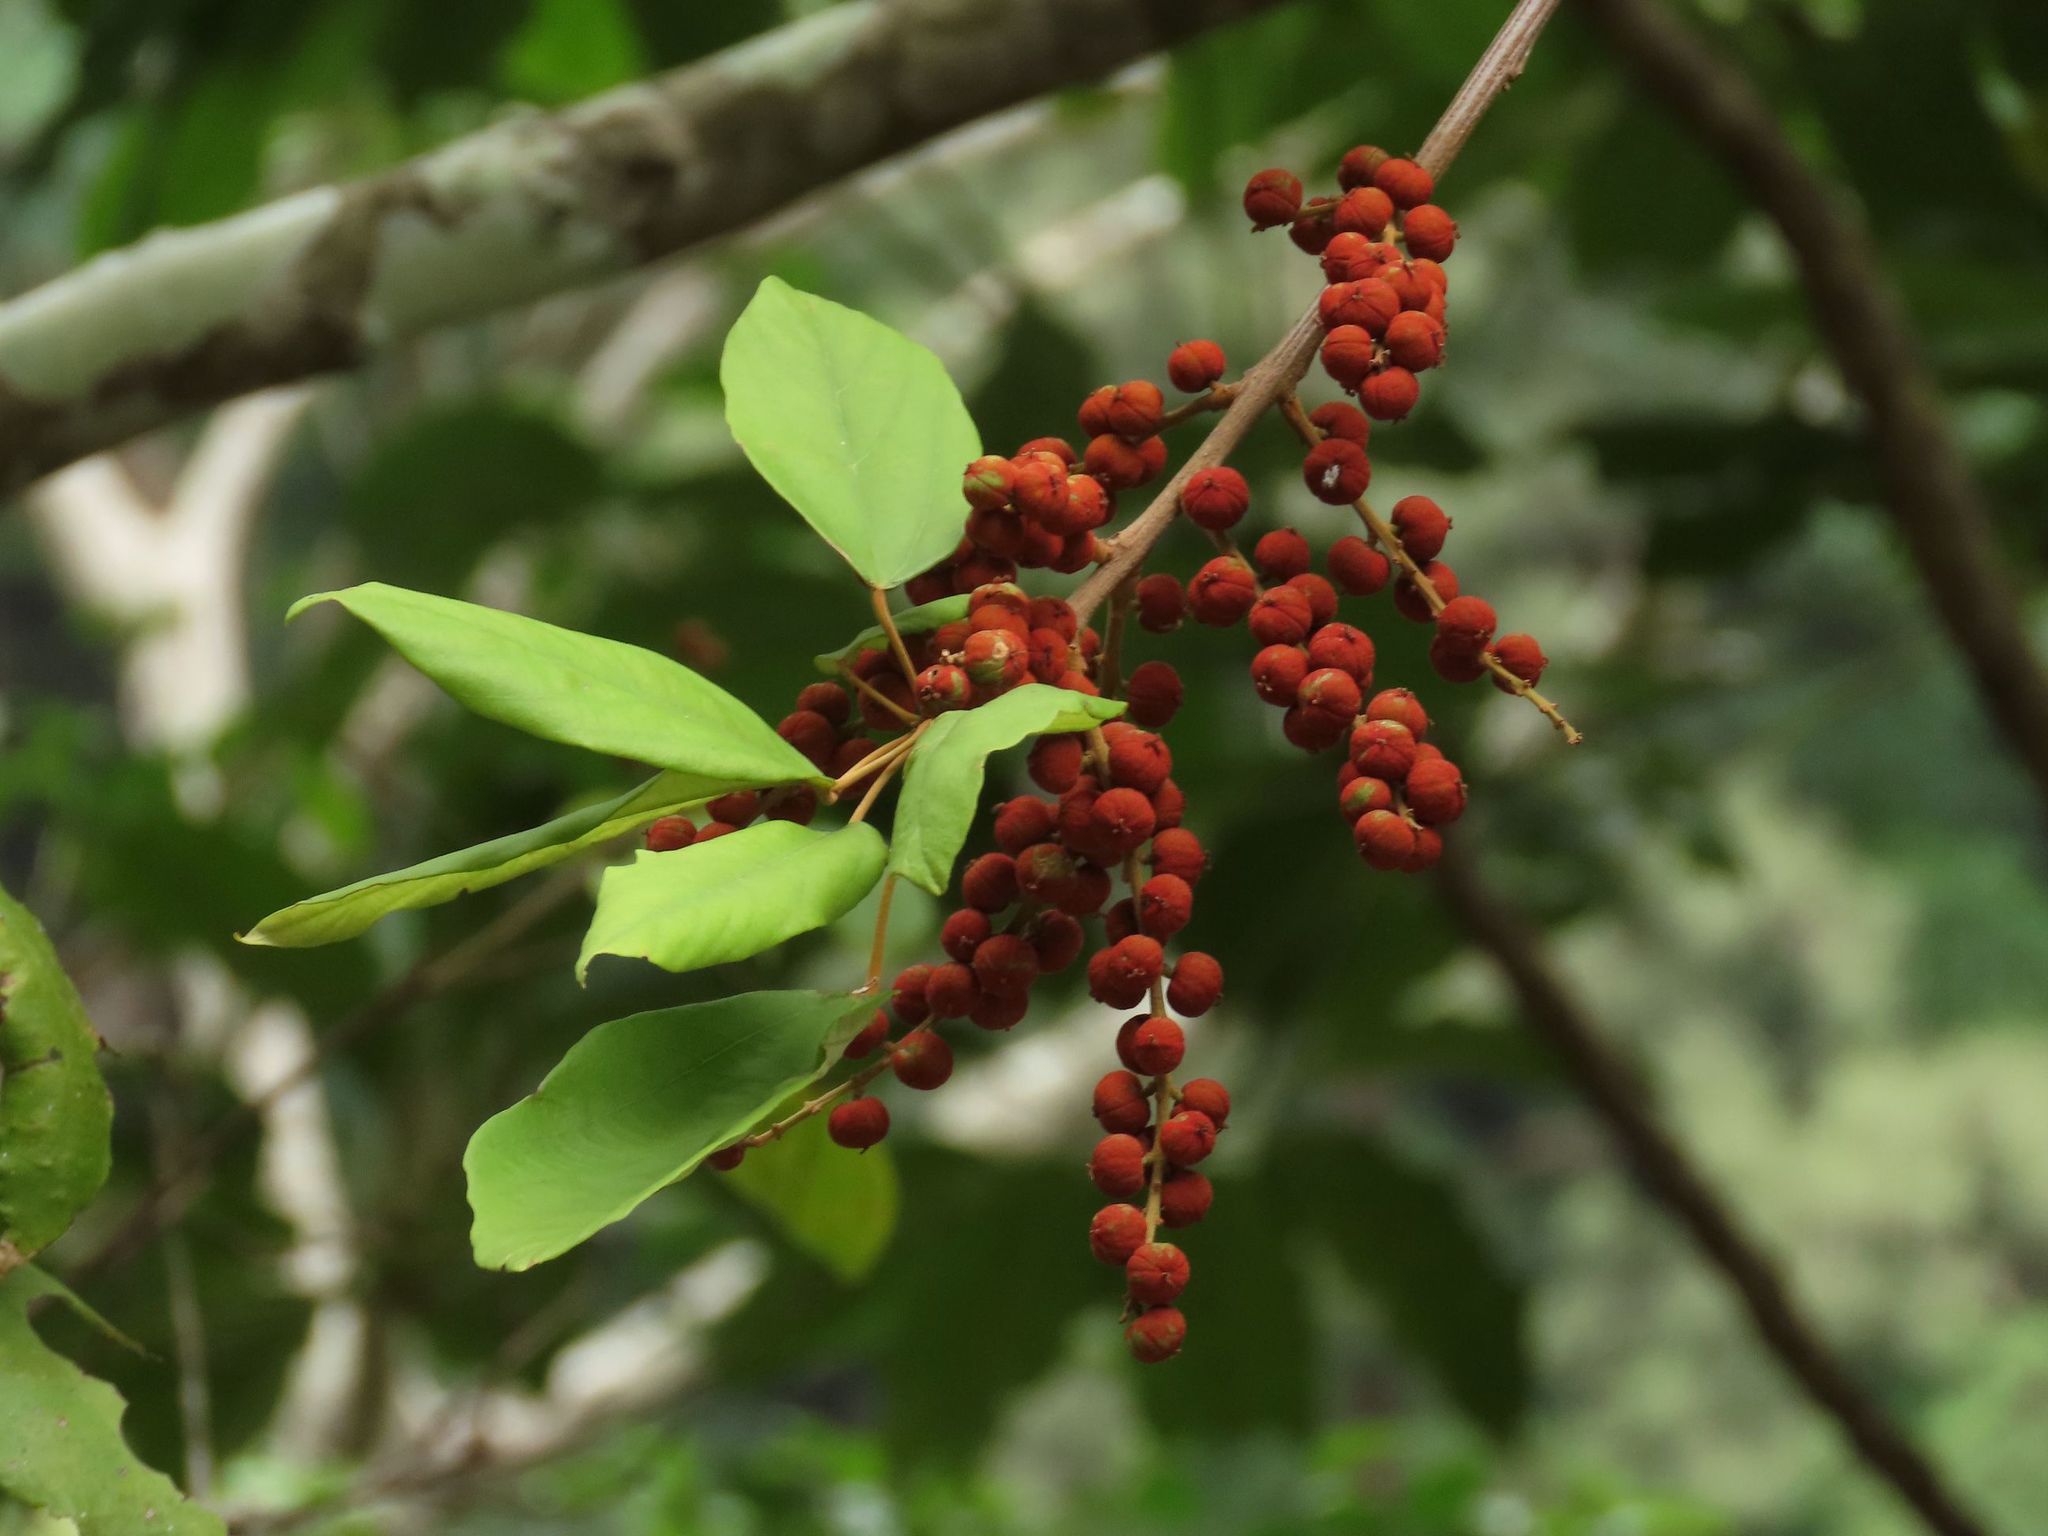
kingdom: Plantae
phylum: Tracheophyta
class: Magnoliopsida
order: Malpighiales
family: Euphorbiaceae
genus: Mallotus
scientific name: Mallotus philippensis
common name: Kamala tree
